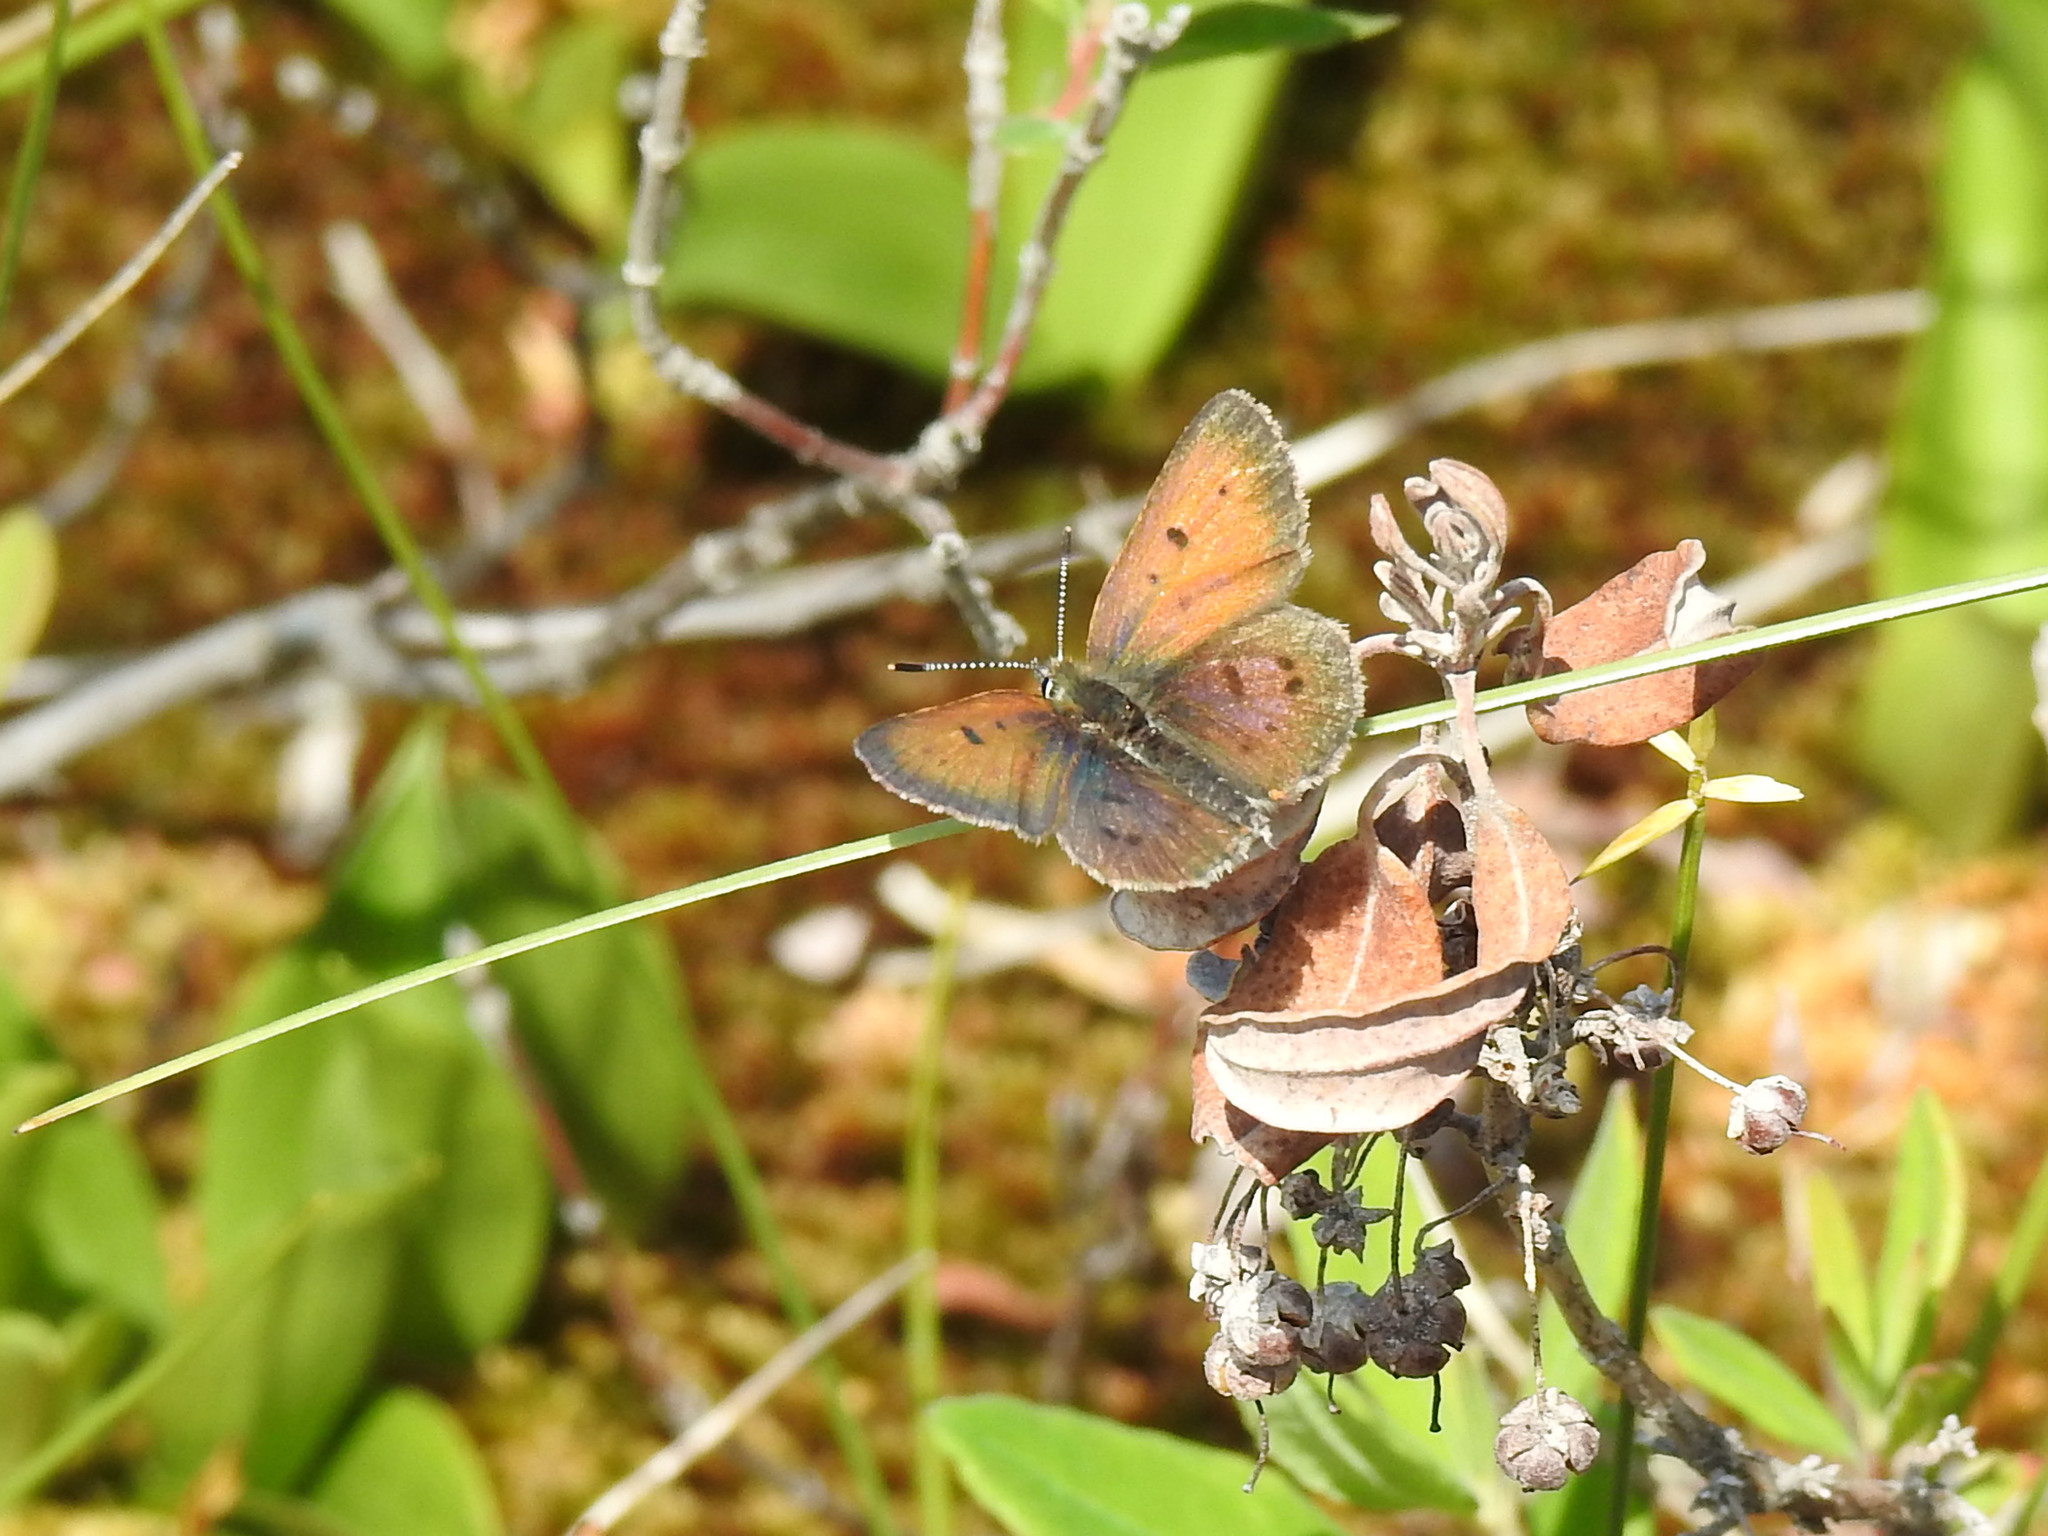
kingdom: Animalia
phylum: Arthropoda
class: Insecta
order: Lepidoptera
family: Lycaenidae
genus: Tharsalea
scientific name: Tharsalea epixanthe
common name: Bog copper
